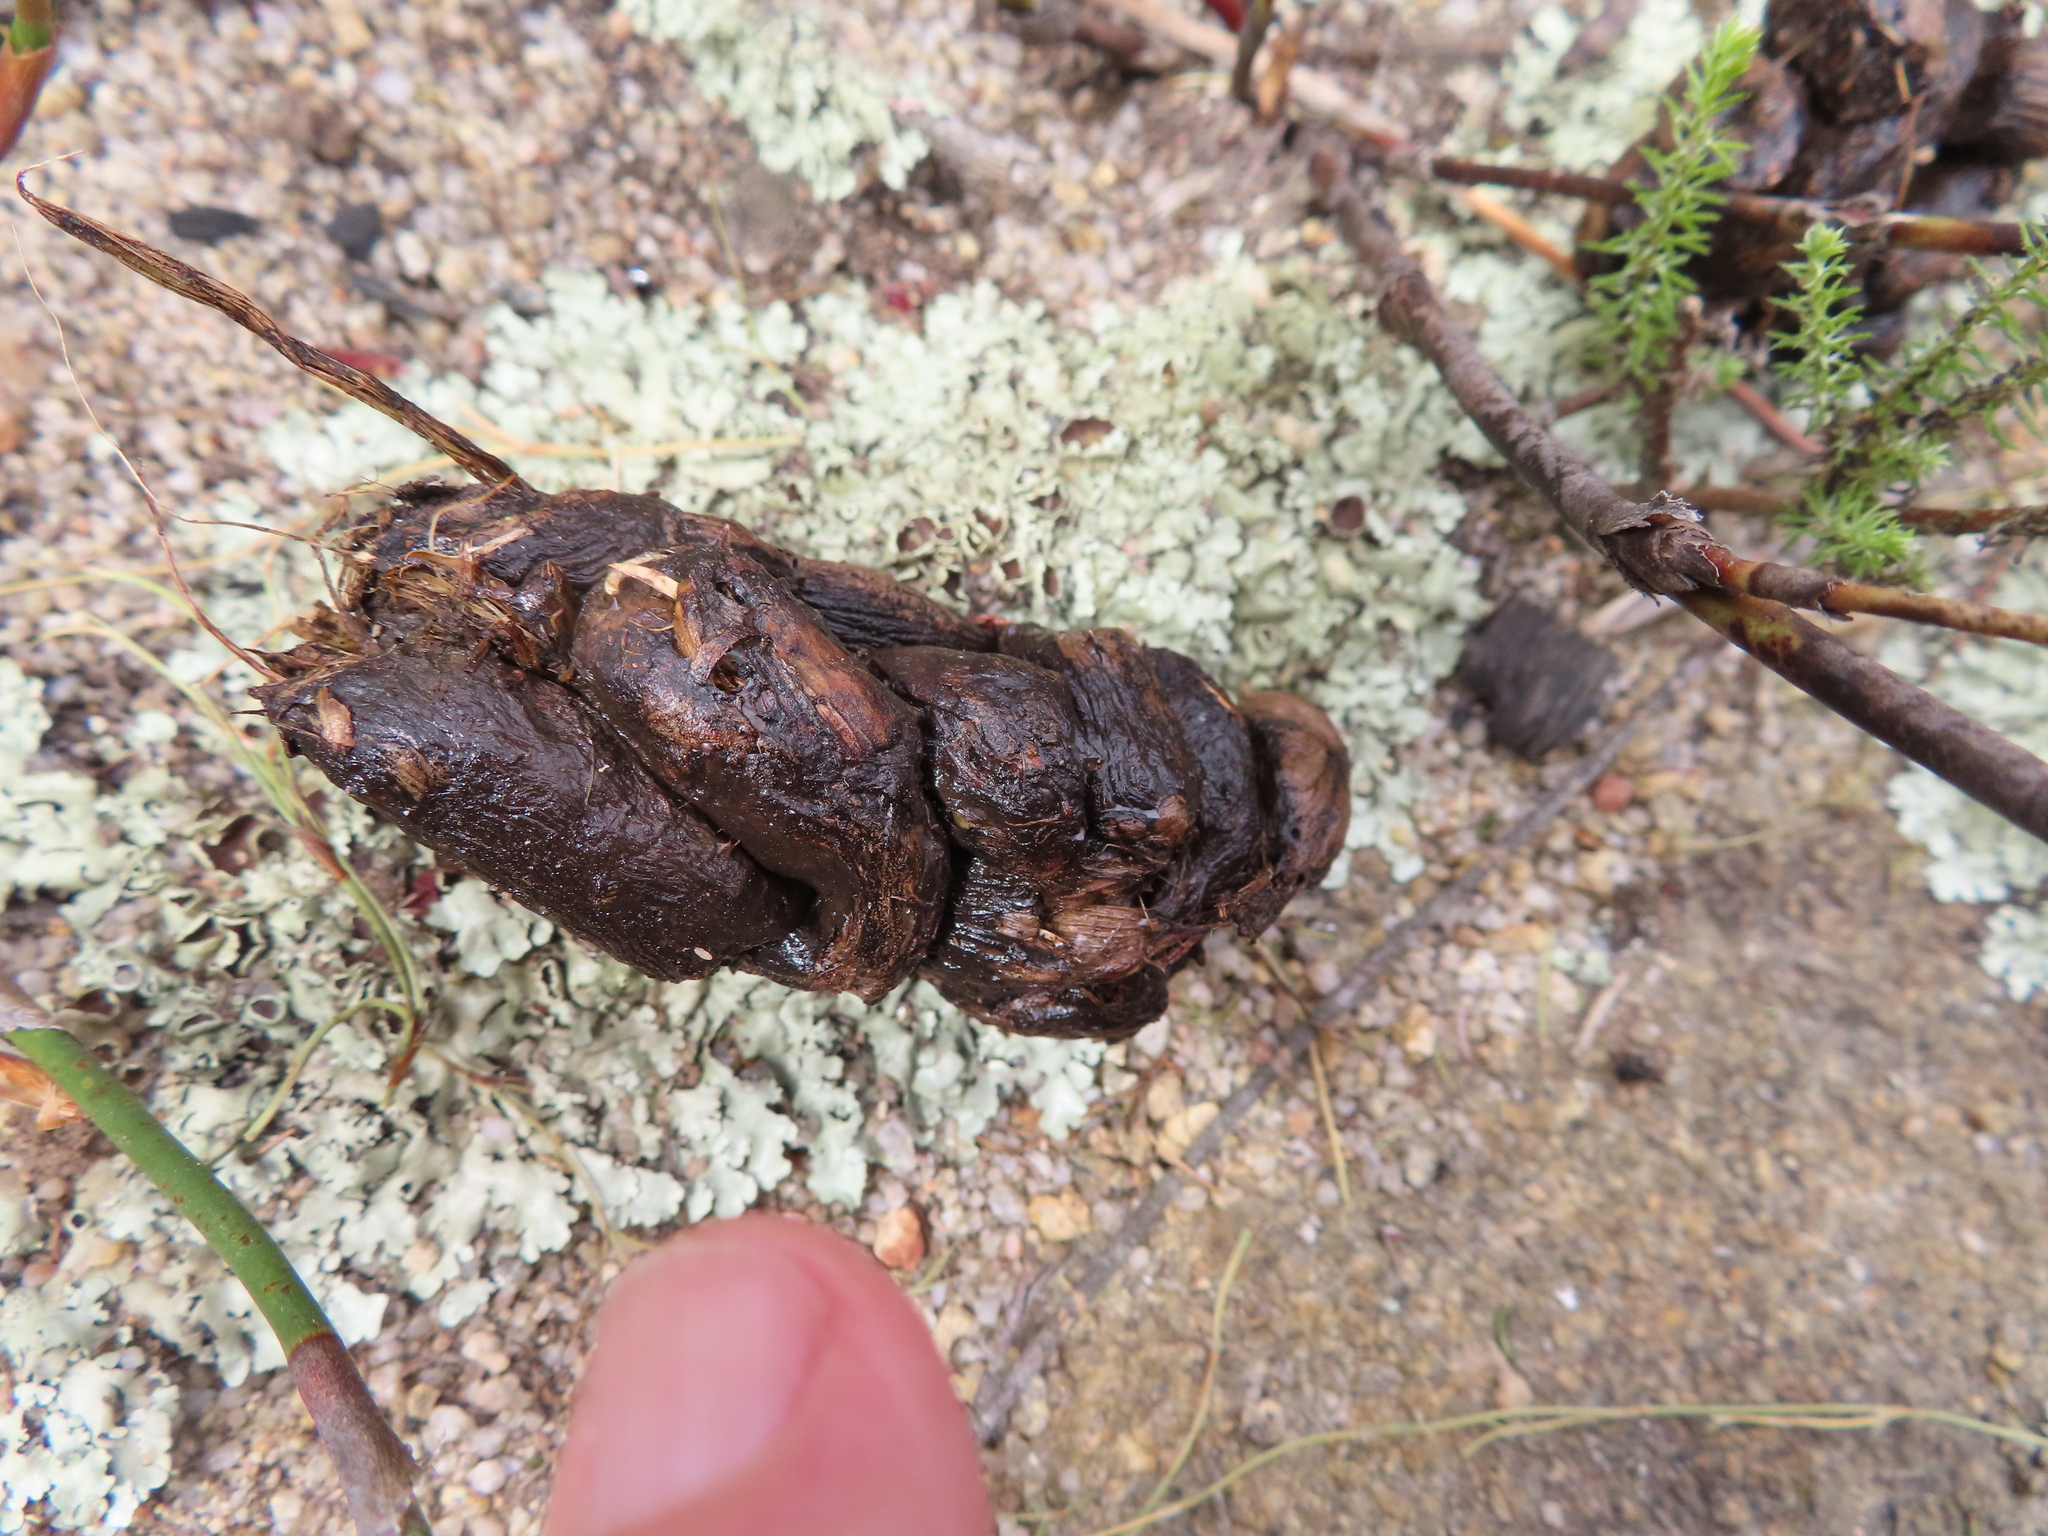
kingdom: Animalia
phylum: Chordata
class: Mammalia
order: Rodentia
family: Hystricidae
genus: Hystrix
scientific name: Hystrix africaeaustralis
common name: Cape porcupine
